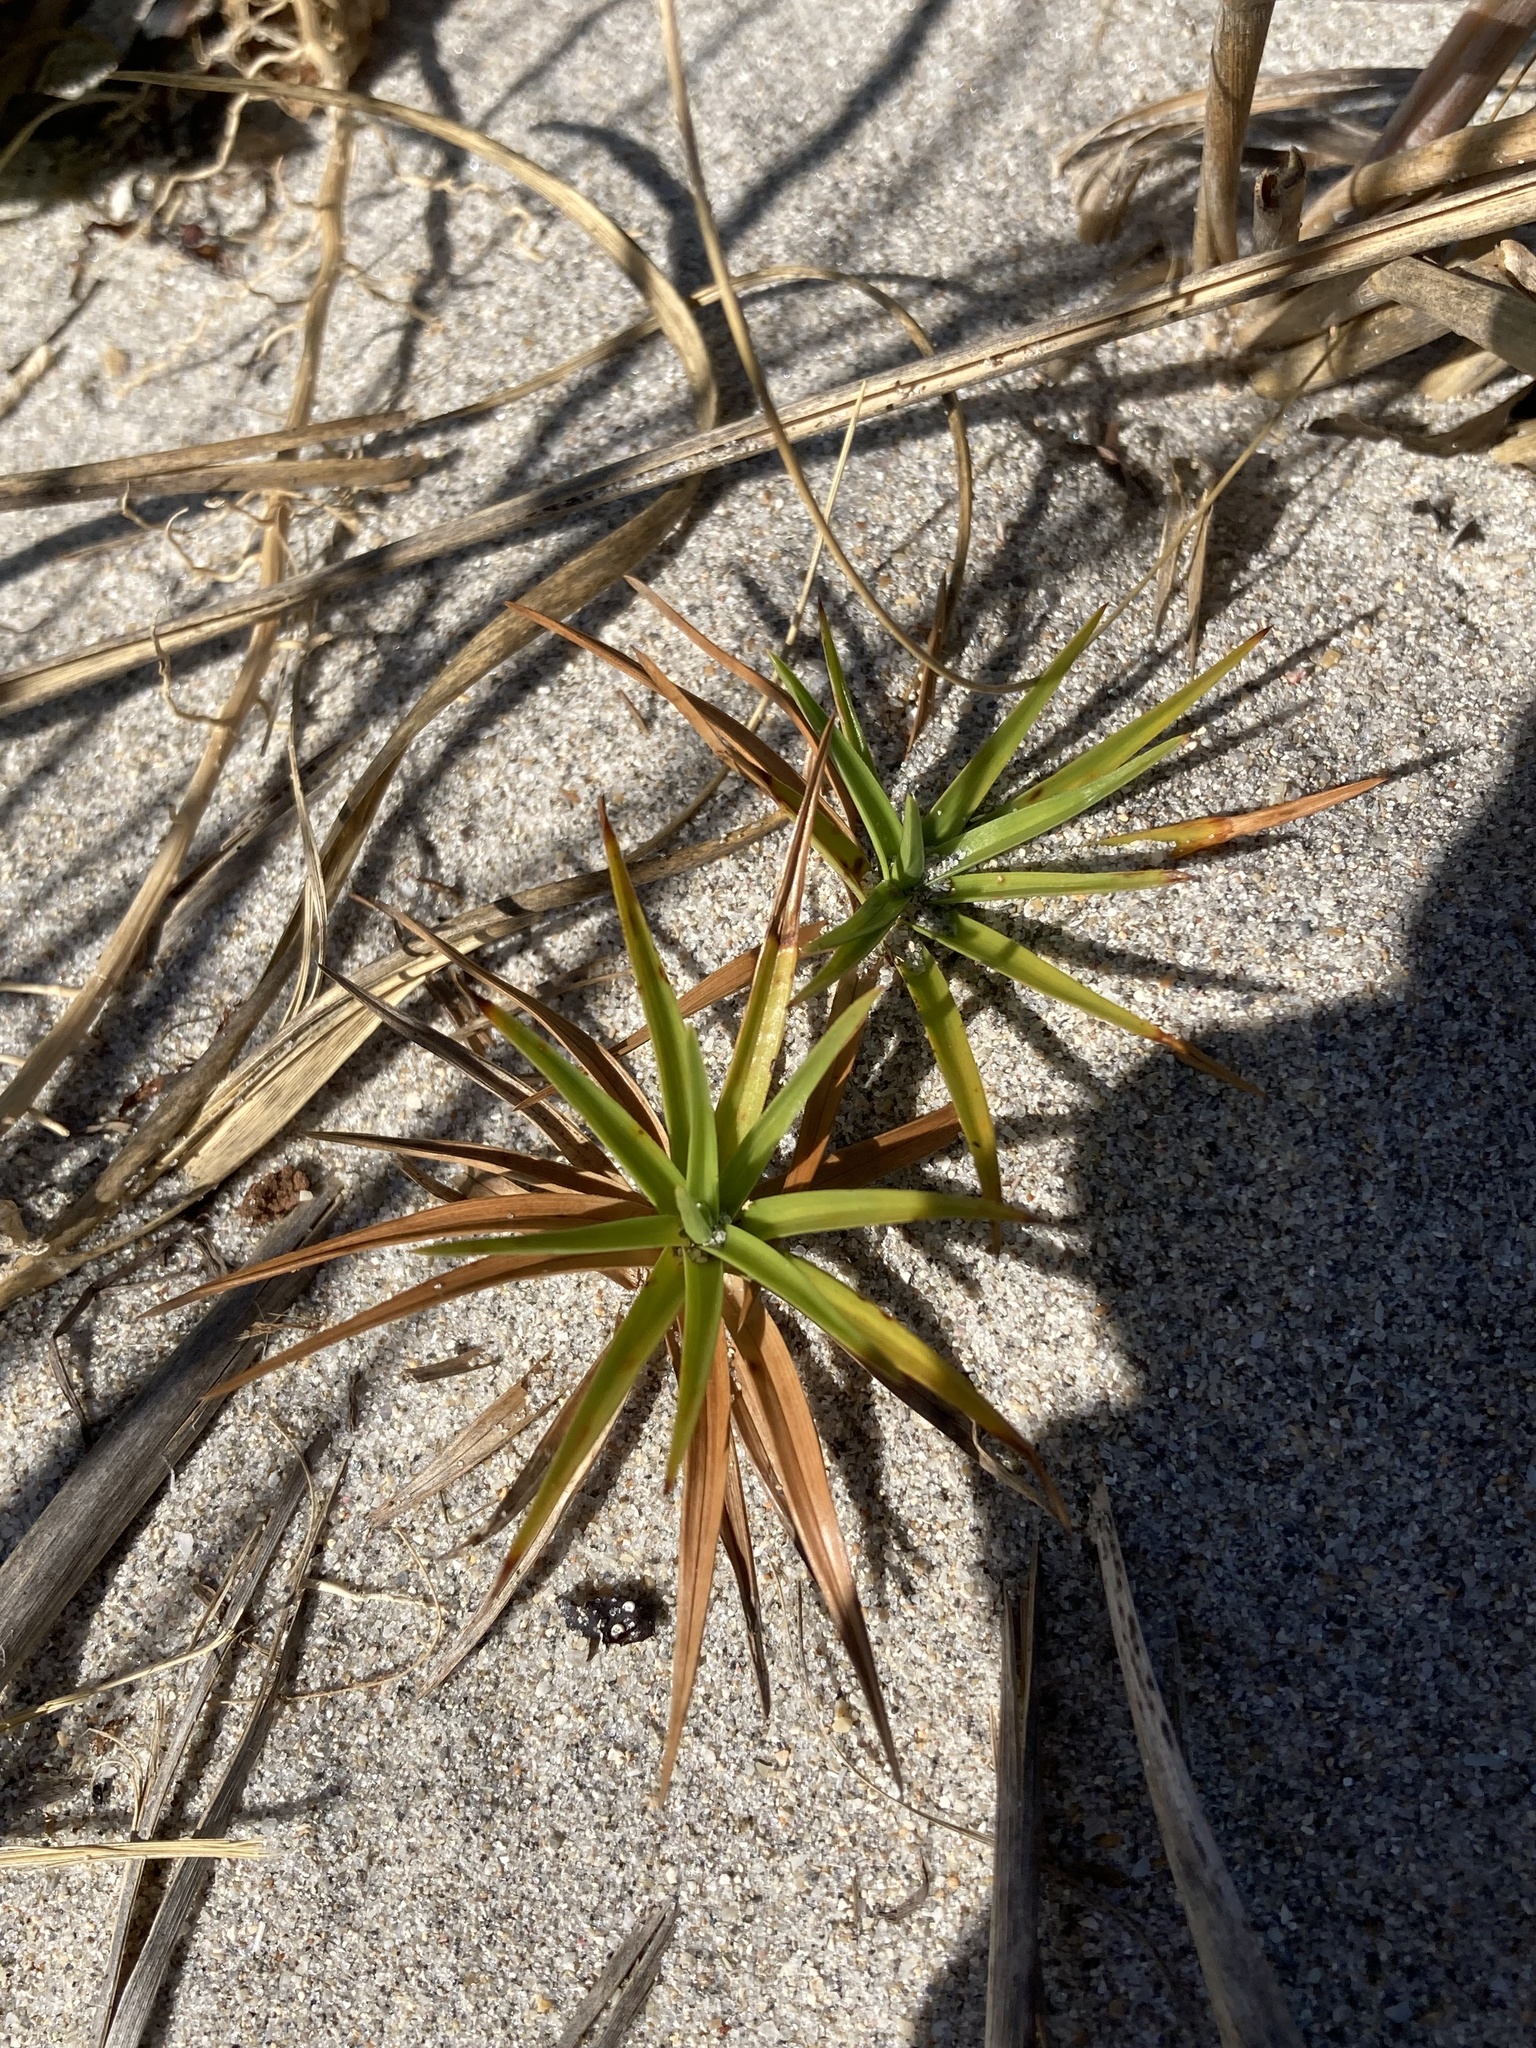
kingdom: Plantae
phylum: Tracheophyta
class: Liliopsida
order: Poales
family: Cyperaceae
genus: Cyperus
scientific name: Cyperus pedunculatus
